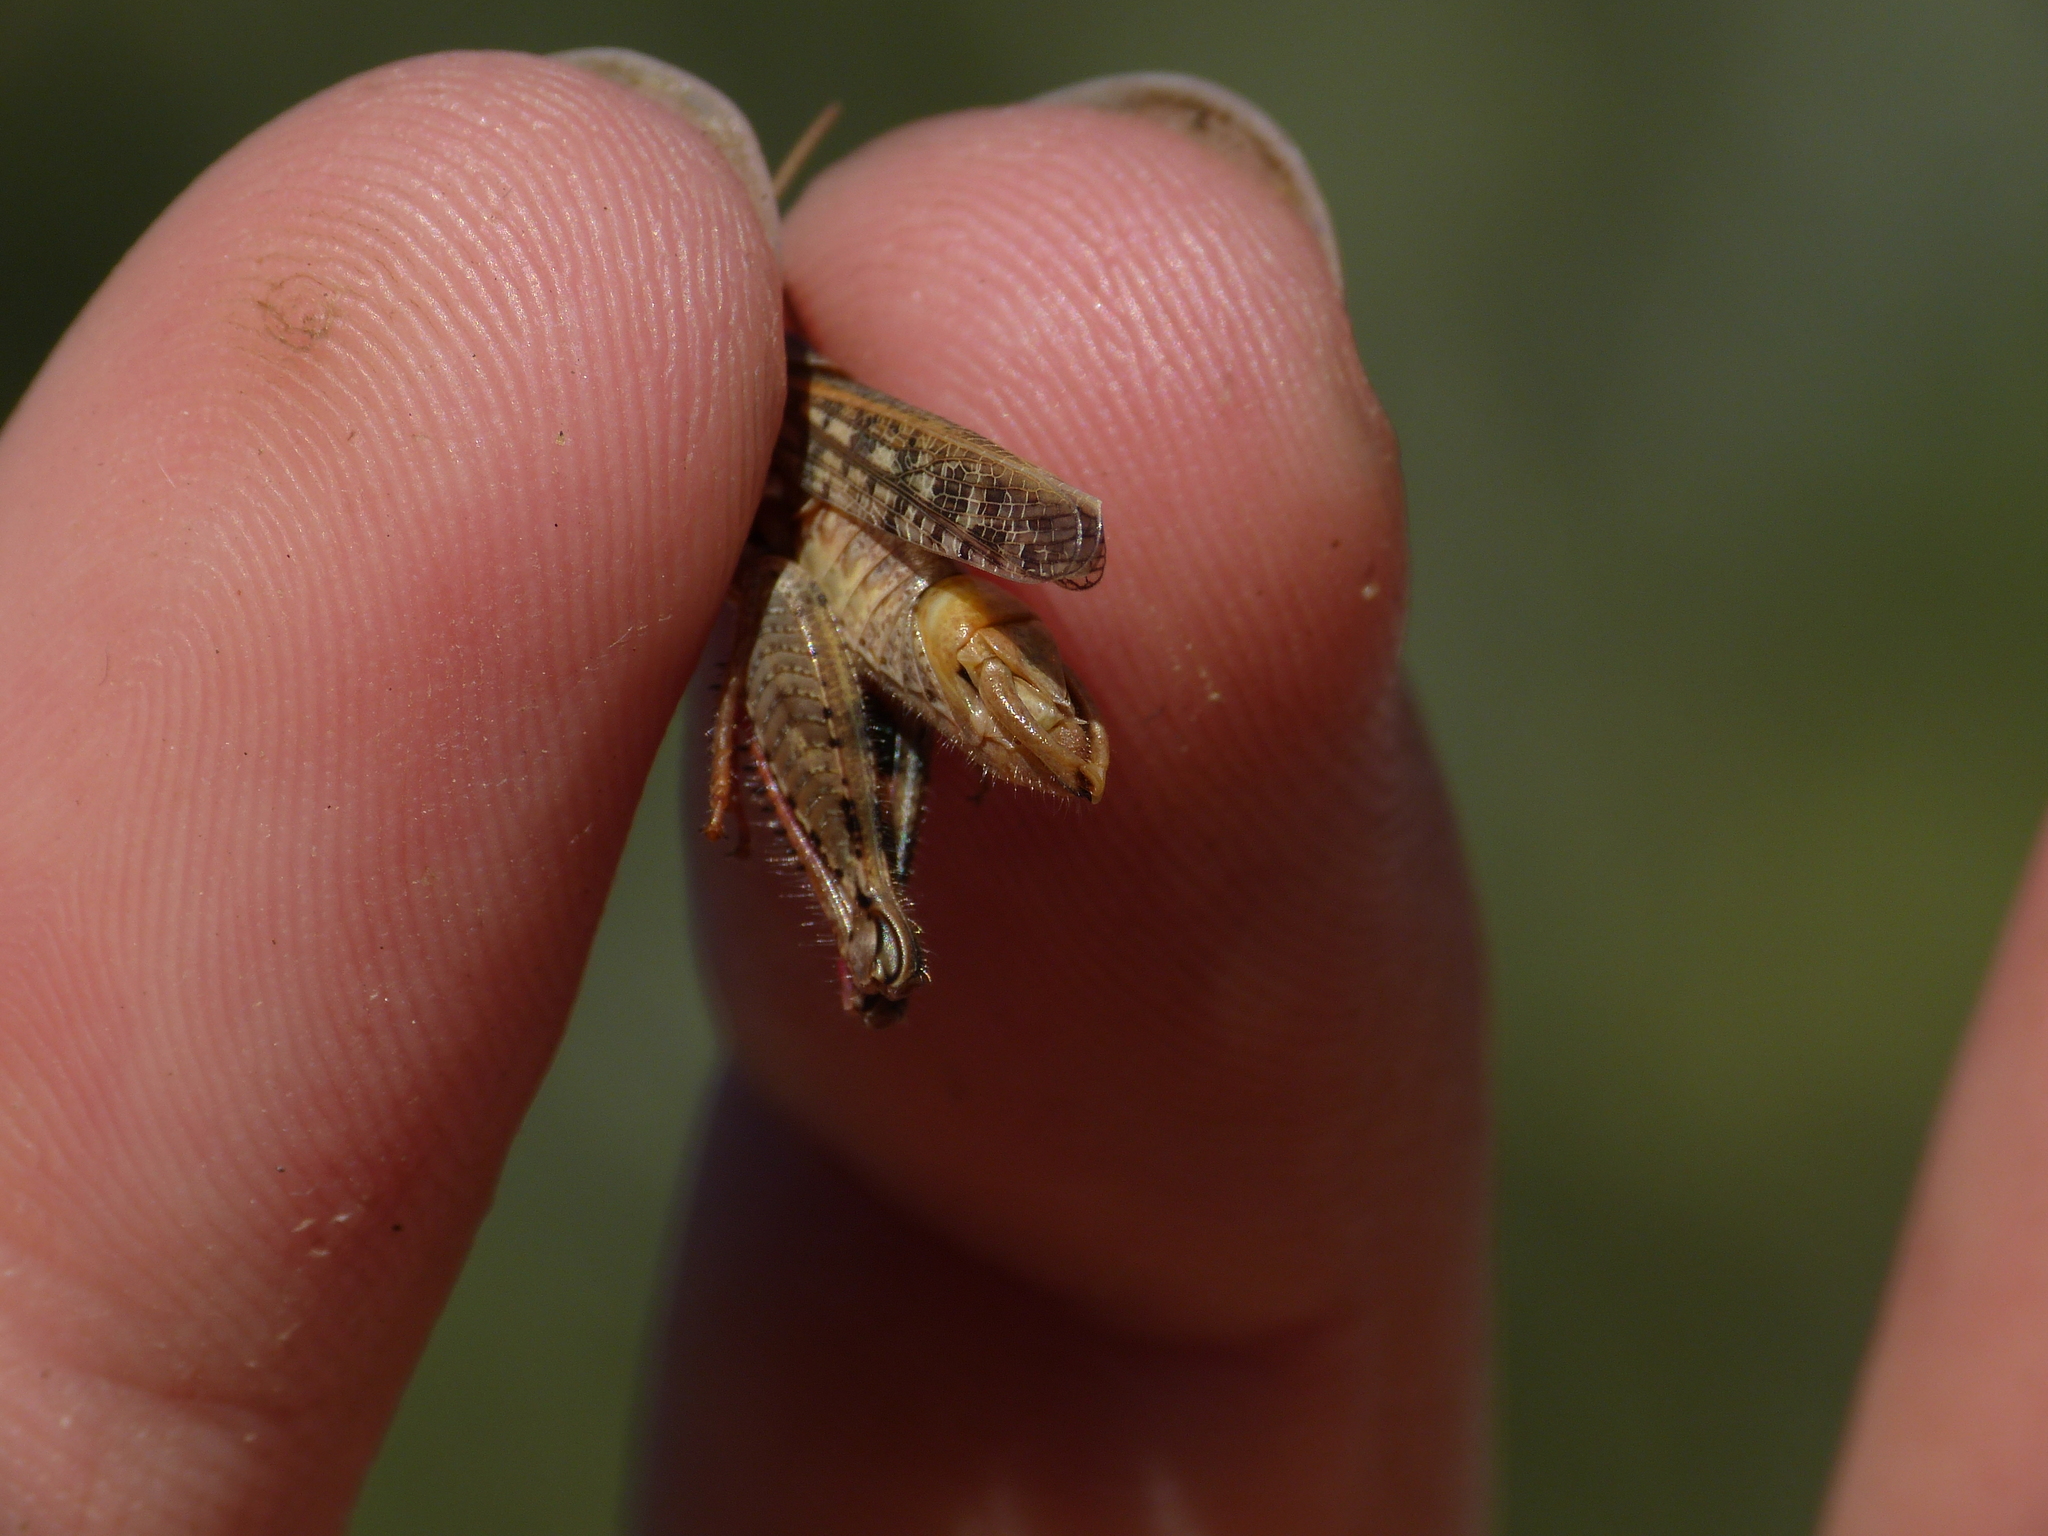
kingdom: Animalia
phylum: Arthropoda
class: Insecta
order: Orthoptera
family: Acrididae
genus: Calliptamus
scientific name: Calliptamus barbarus
